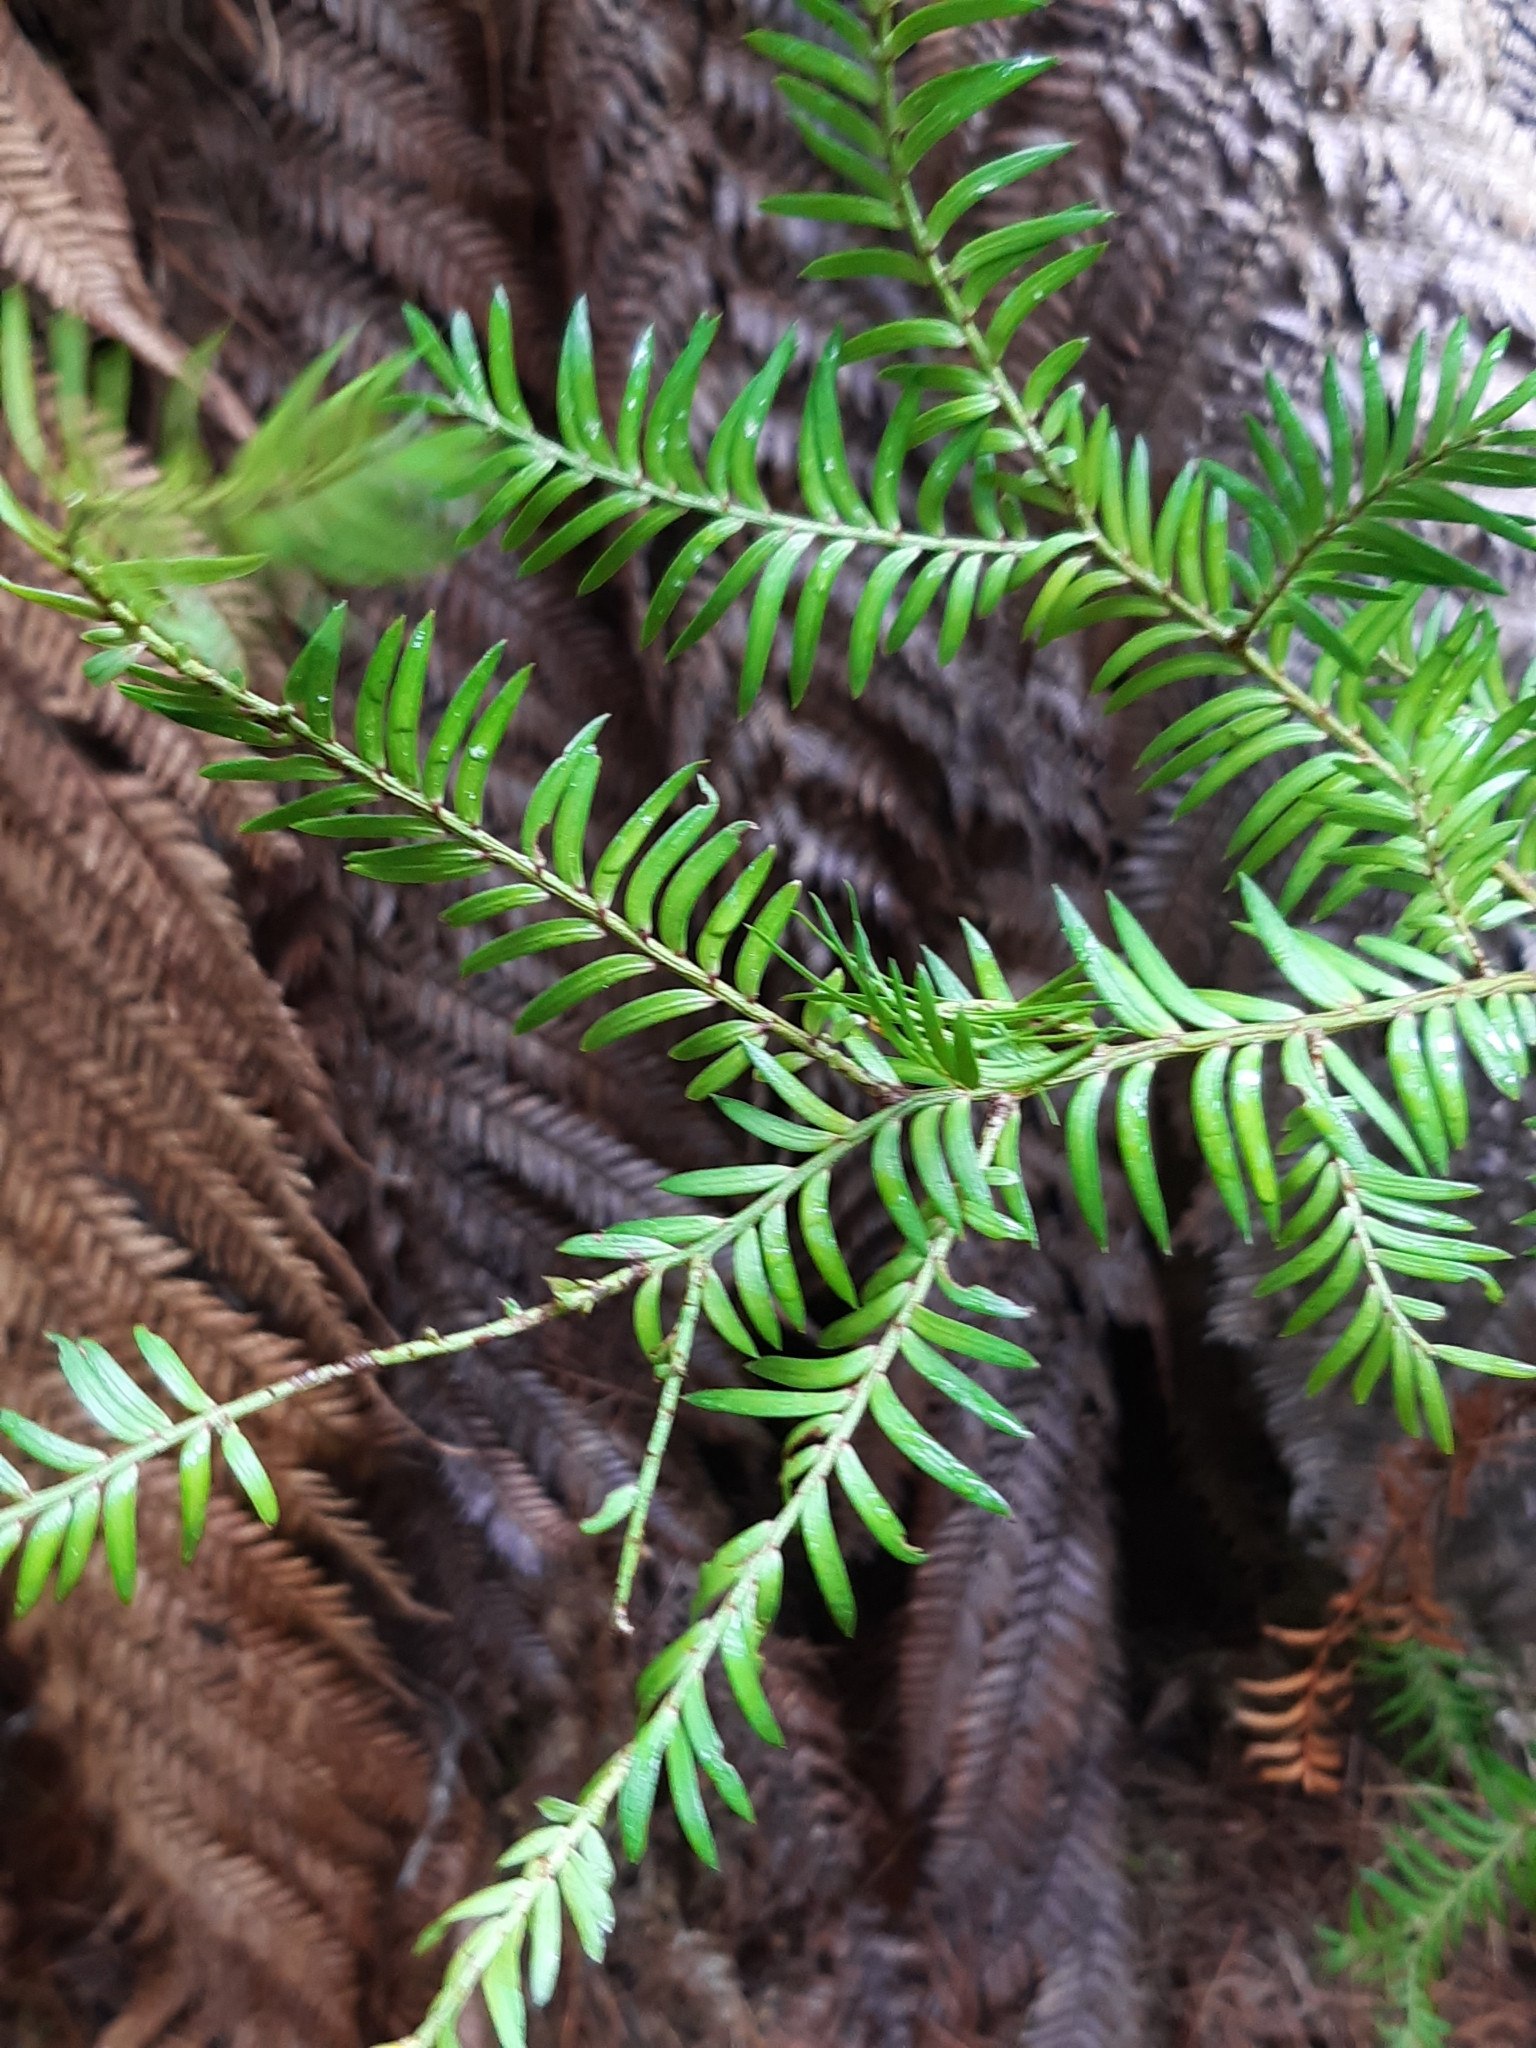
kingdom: Plantae
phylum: Tracheophyta
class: Pinopsida
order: Pinales
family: Podocarpaceae
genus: Prumnopitys
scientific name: Prumnopitys ferruginea
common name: Brown pine
